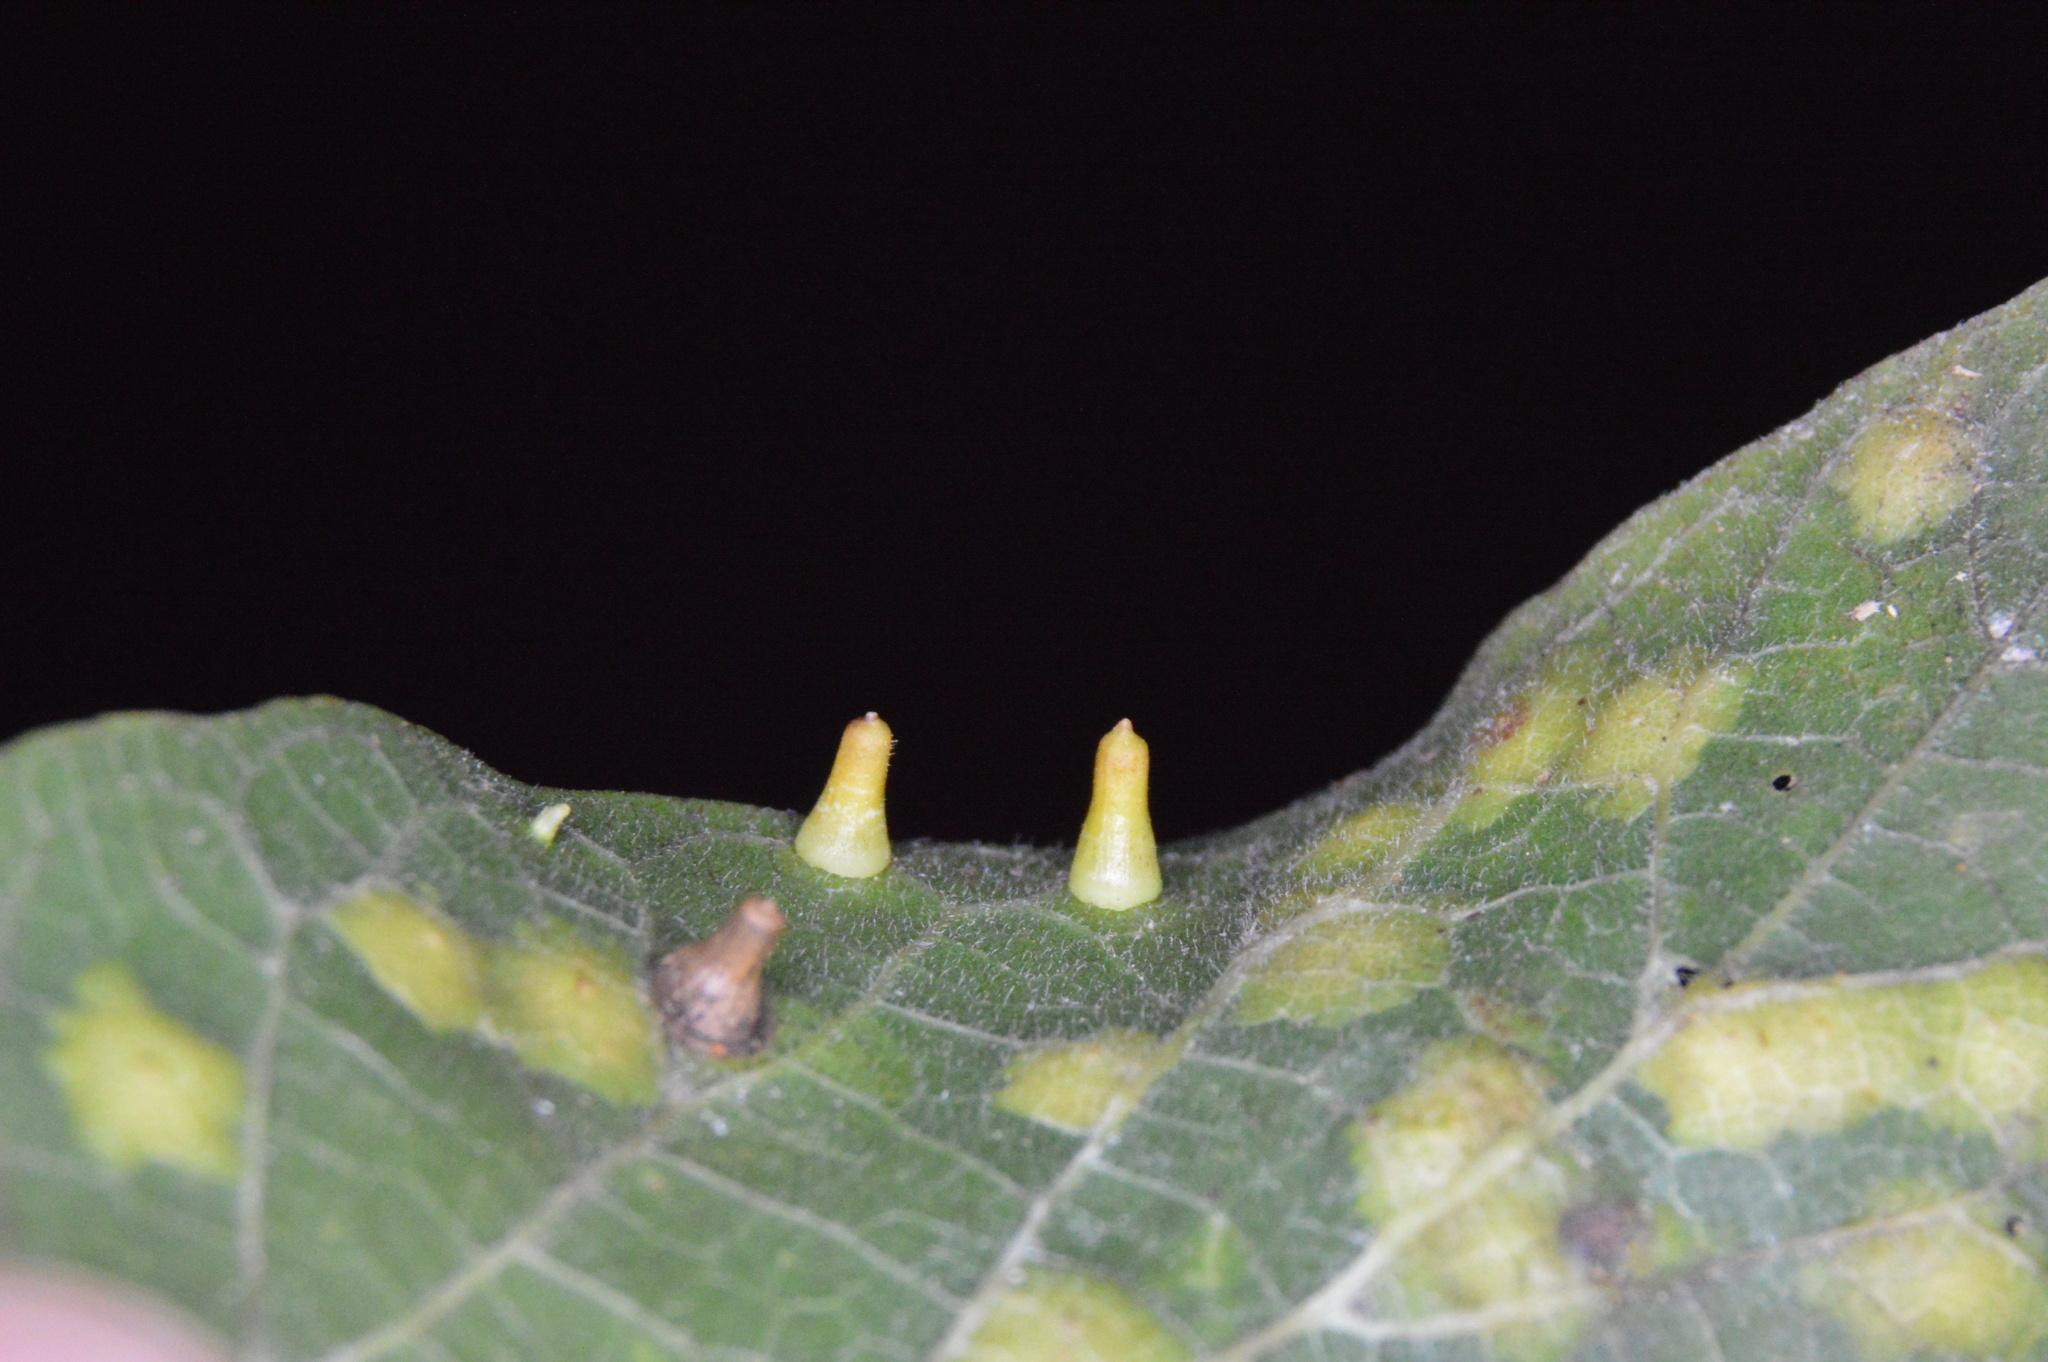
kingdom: Animalia
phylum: Arthropoda
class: Insecta
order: Diptera
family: Cecidomyiidae
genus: Celticecis
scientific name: Celticecis aciculata
